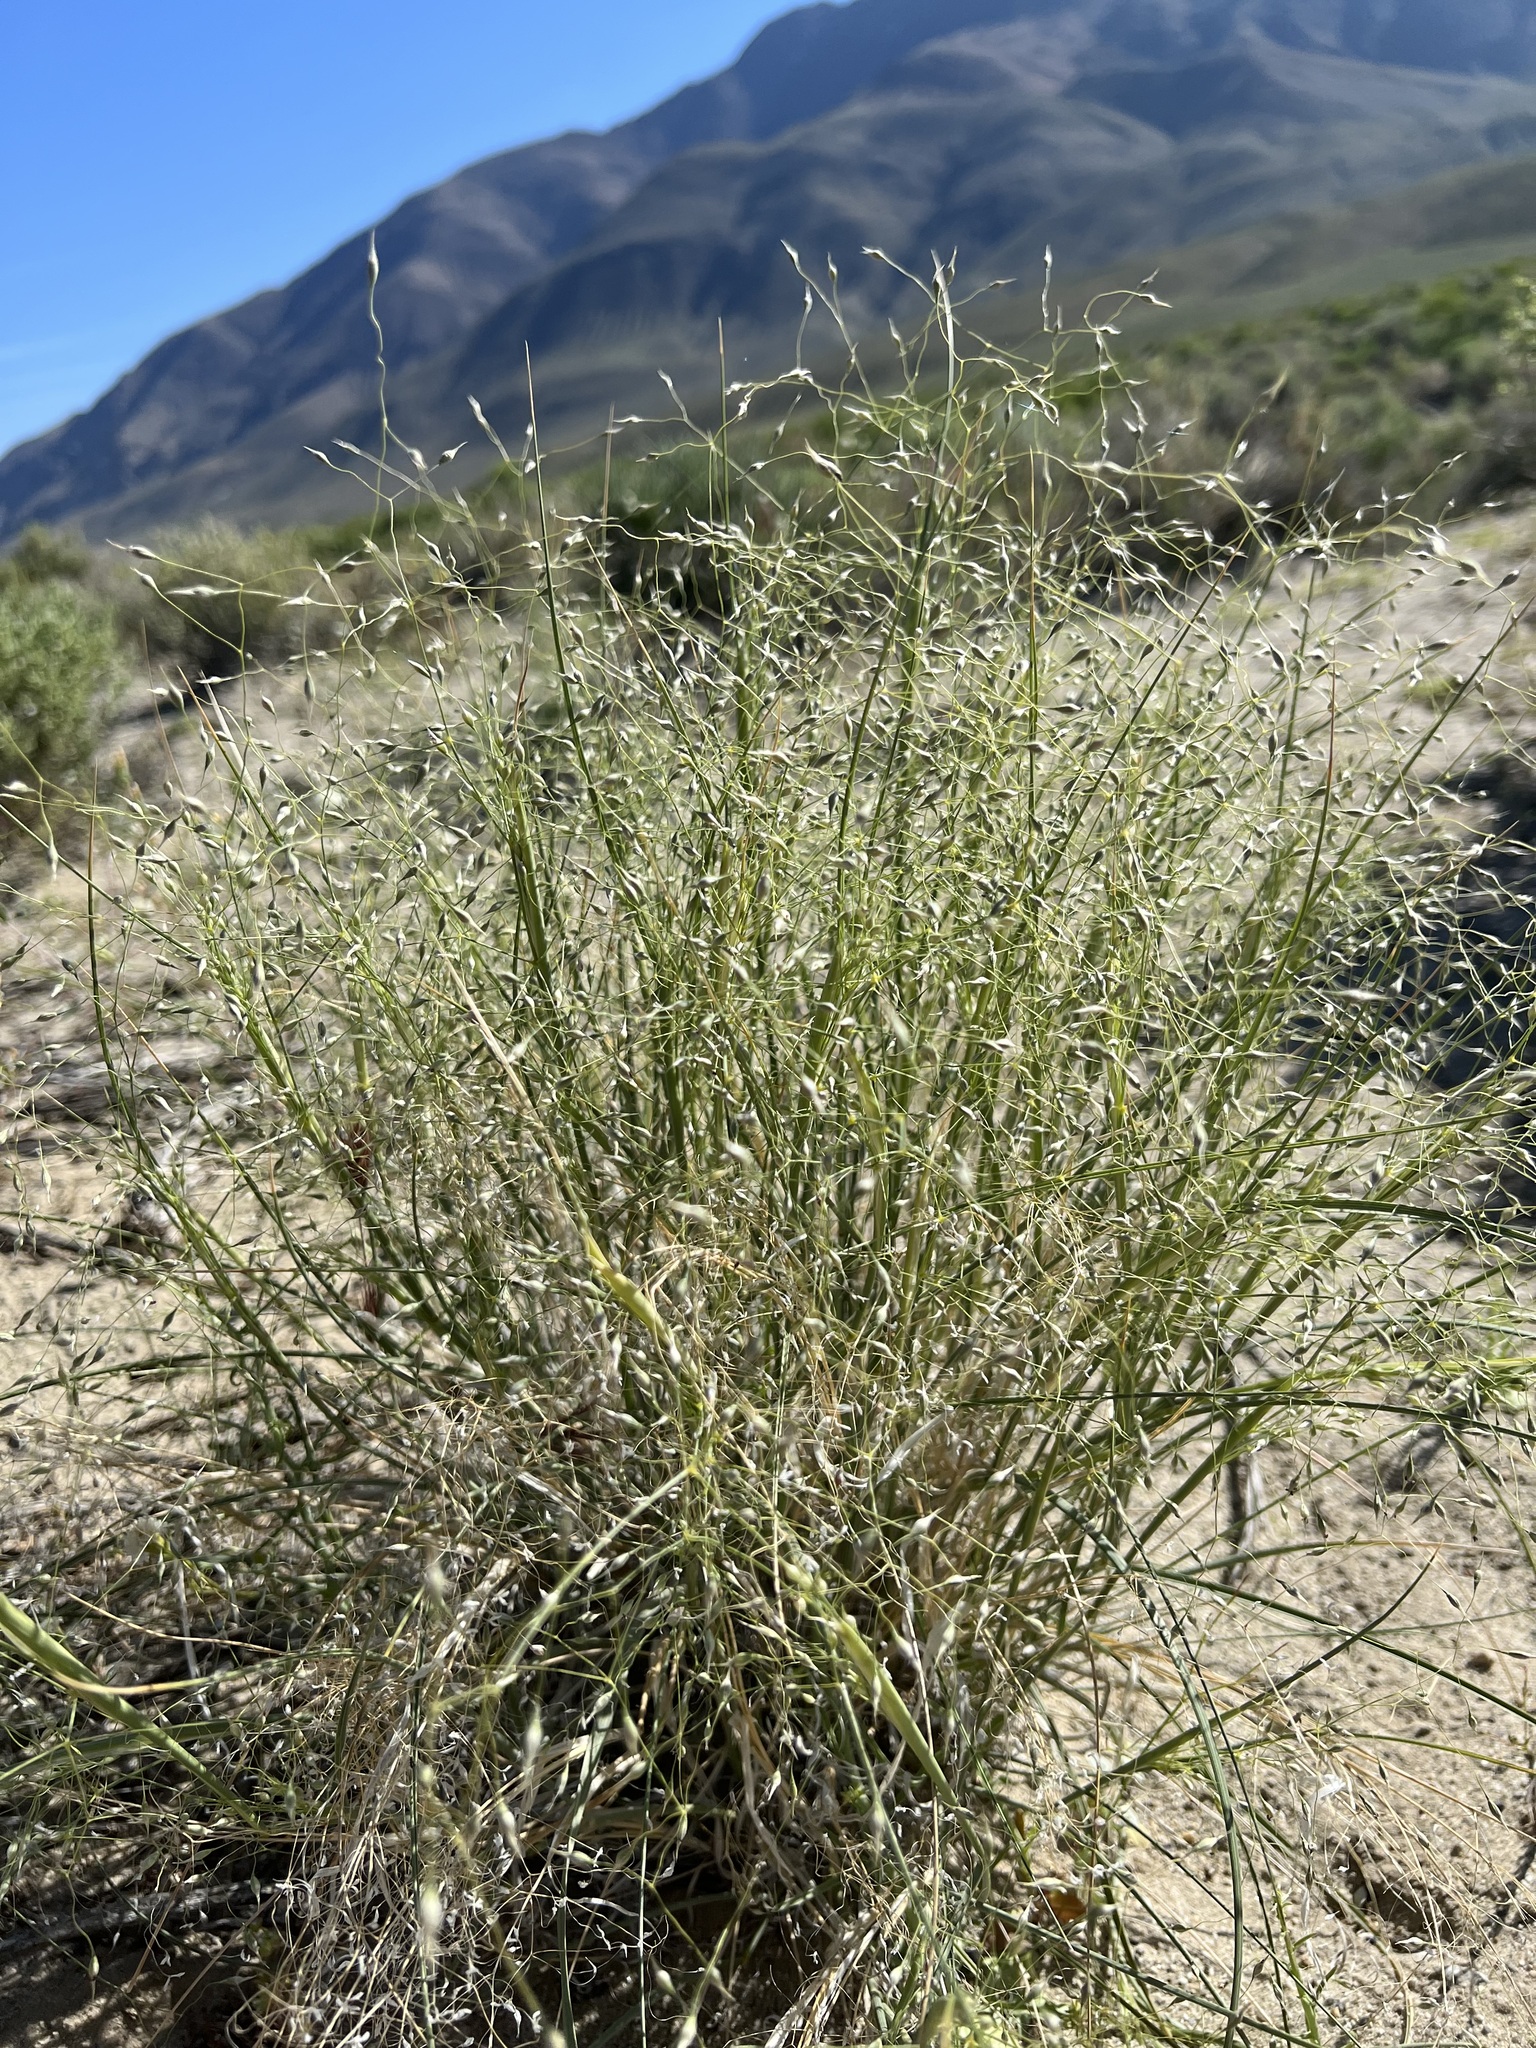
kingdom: Plantae
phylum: Tracheophyta
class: Liliopsida
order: Poales
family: Poaceae
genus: Eriocoma
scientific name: Eriocoma hymenoides
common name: Indian mountain ricegrass
